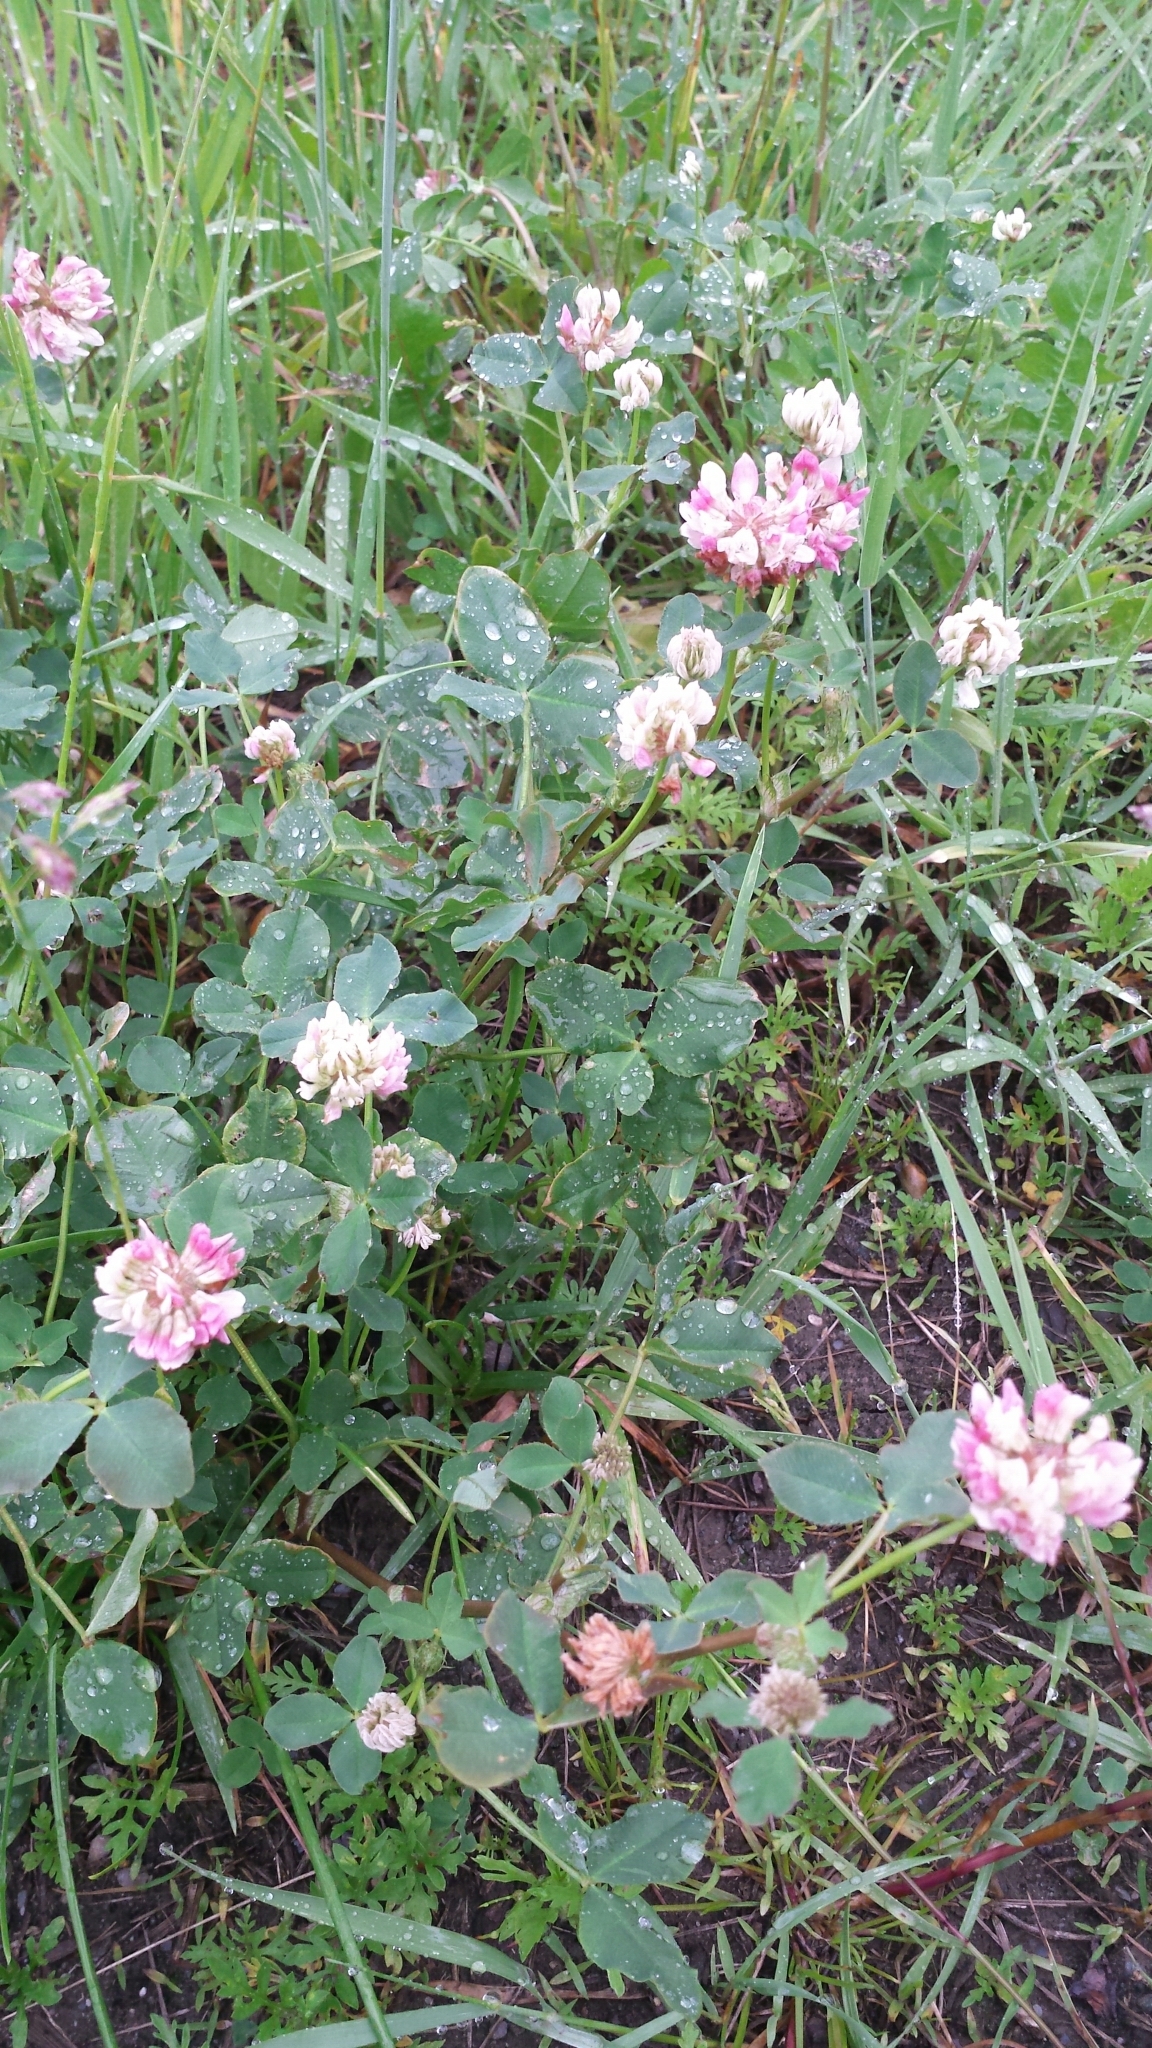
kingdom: Plantae
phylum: Tracheophyta
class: Magnoliopsida
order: Fabales
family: Fabaceae
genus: Trifolium
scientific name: Trifolium hybridum
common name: Alsike clover
